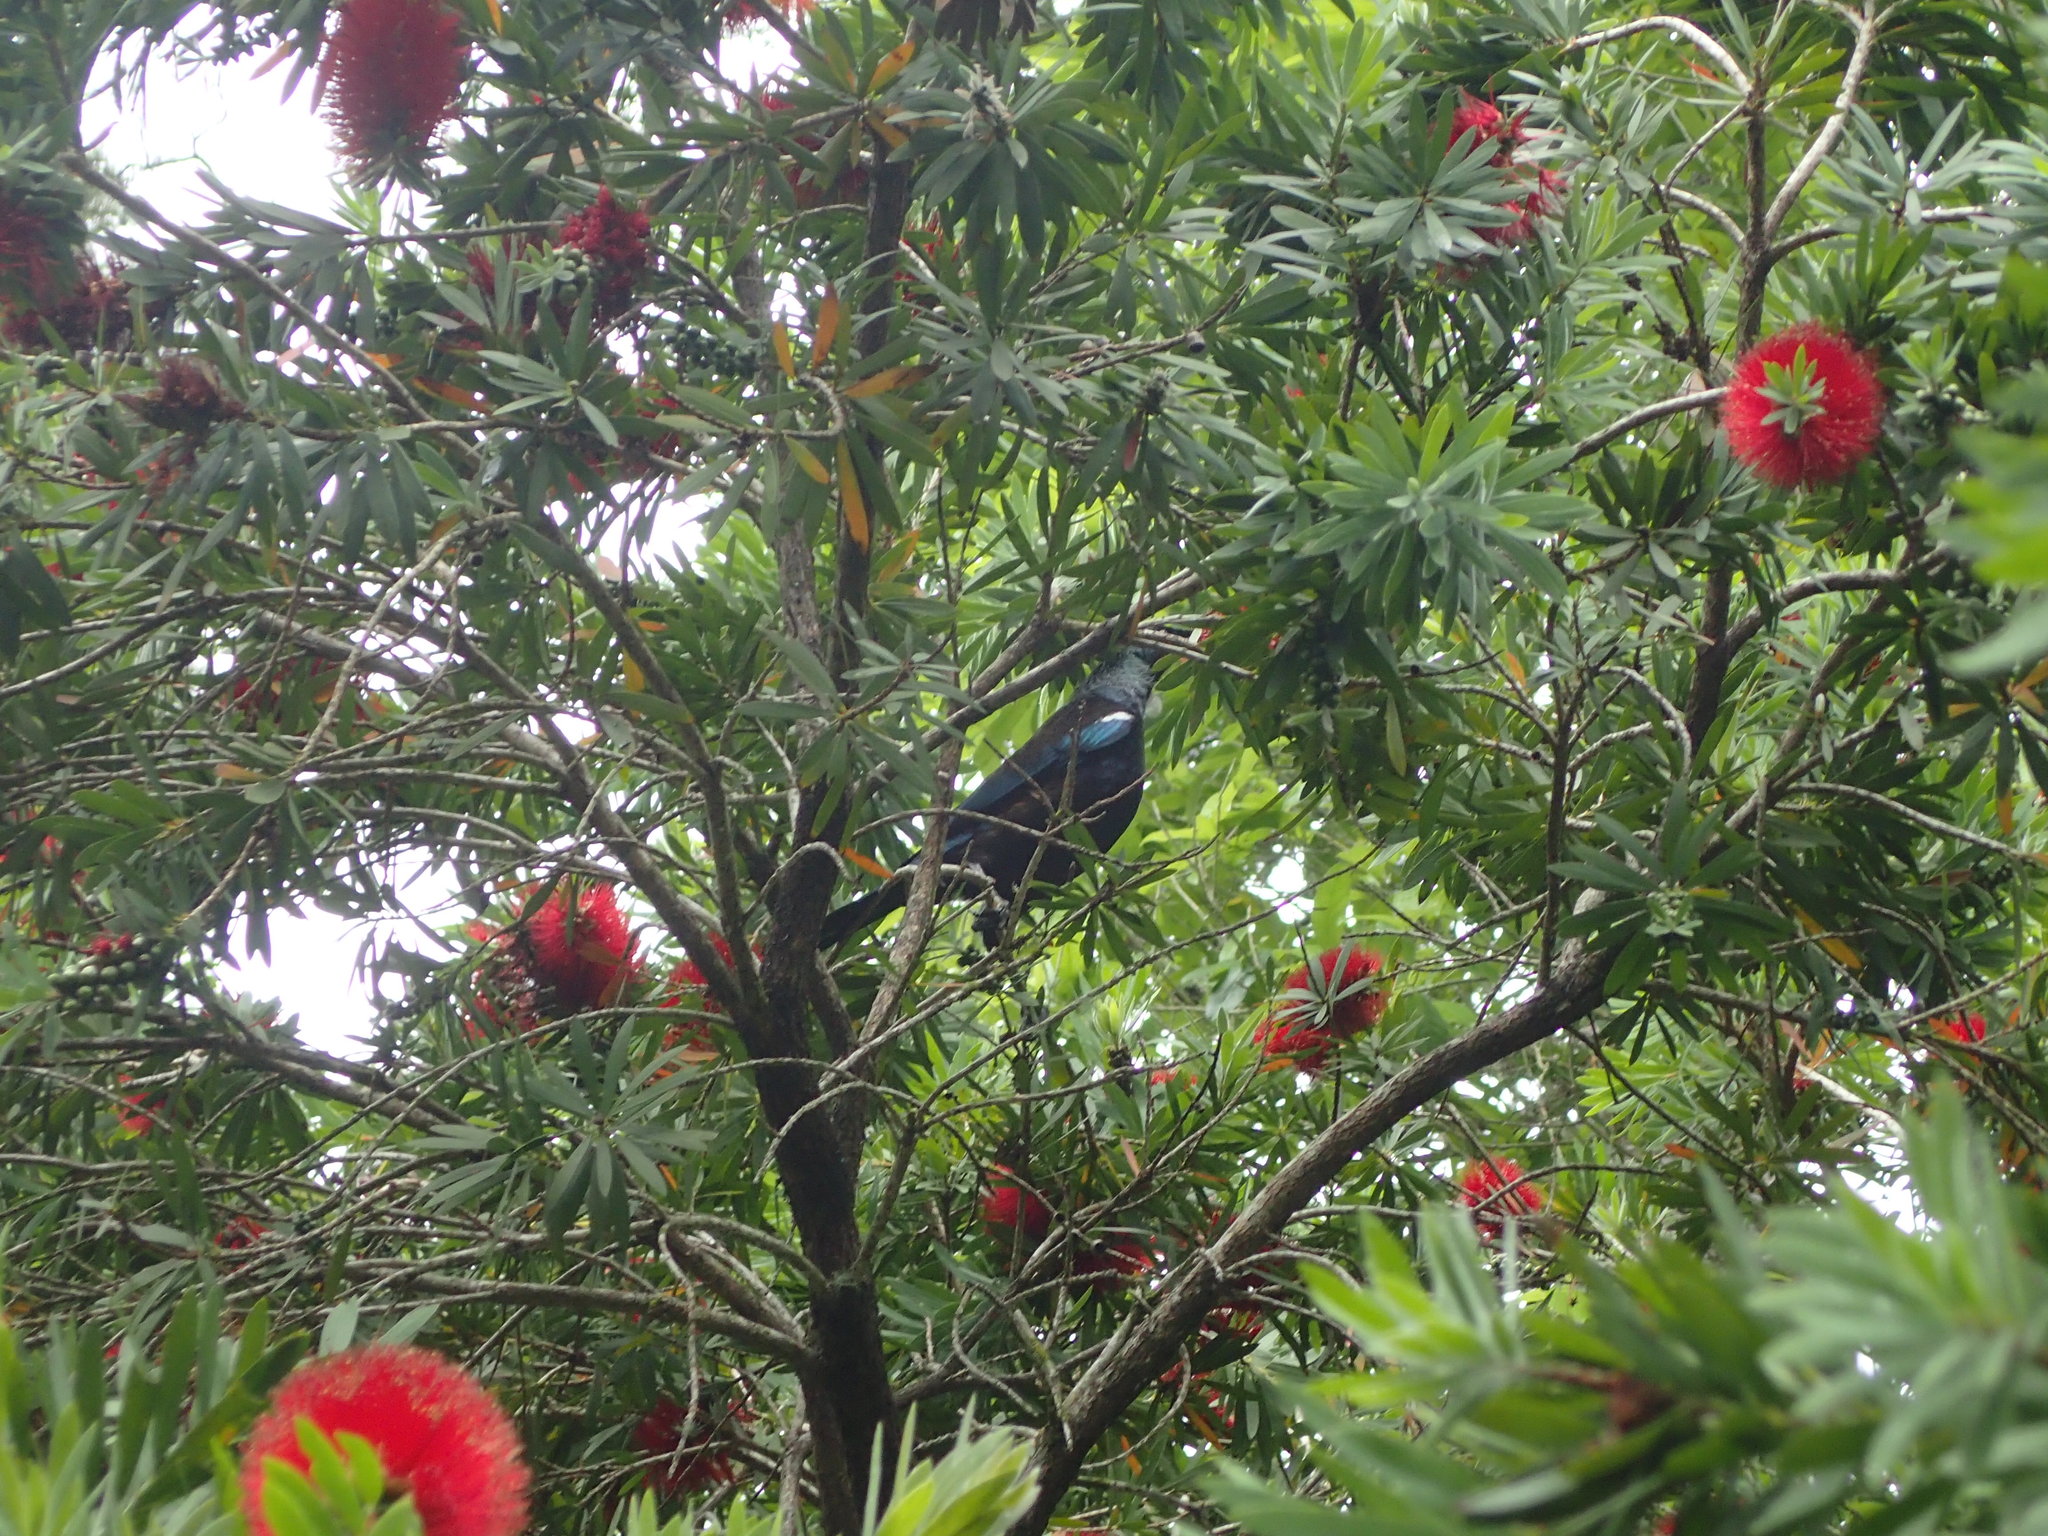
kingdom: Animalia
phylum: Chordata
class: Aves
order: Passeriformes
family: Meliphagidae
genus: Prosthemadera
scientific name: Prosthemadera novaeseelandiae
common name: Tui
